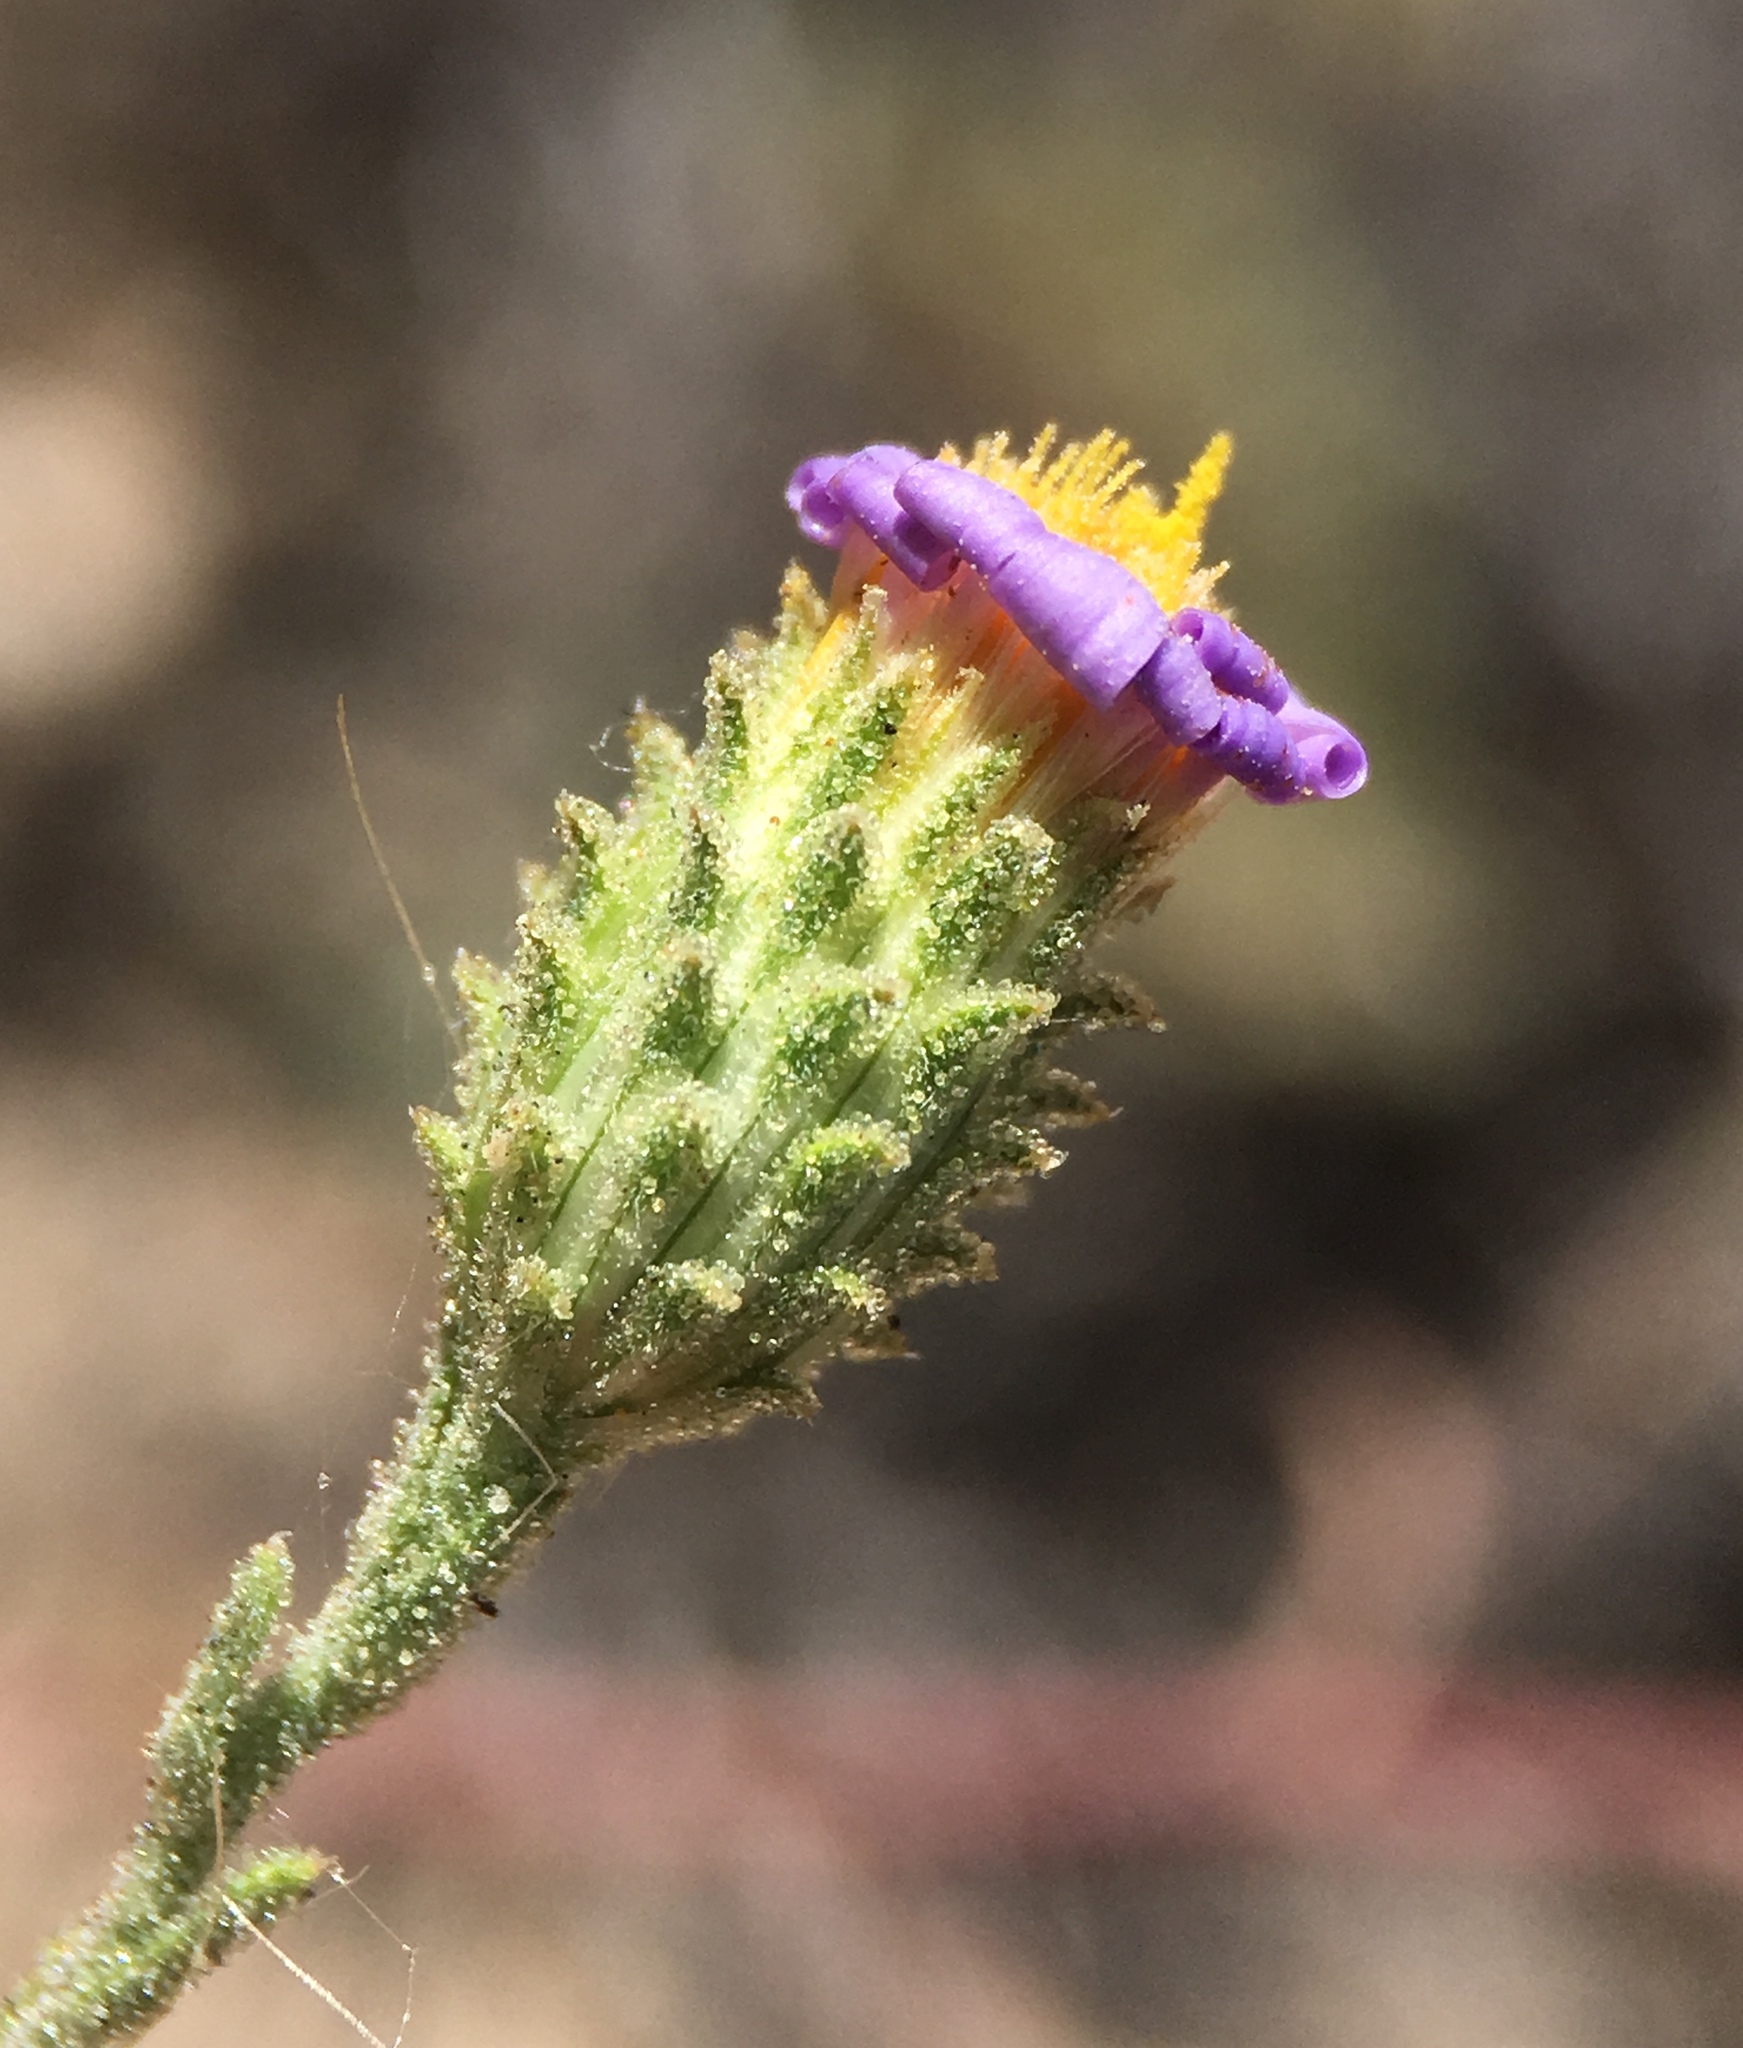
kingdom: Plantae
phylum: Tracheophyta
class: Magnoliopsida
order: Asterales
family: Asteraceae
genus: Dieteria
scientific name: Dieteria canescens
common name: Hoary-aster
